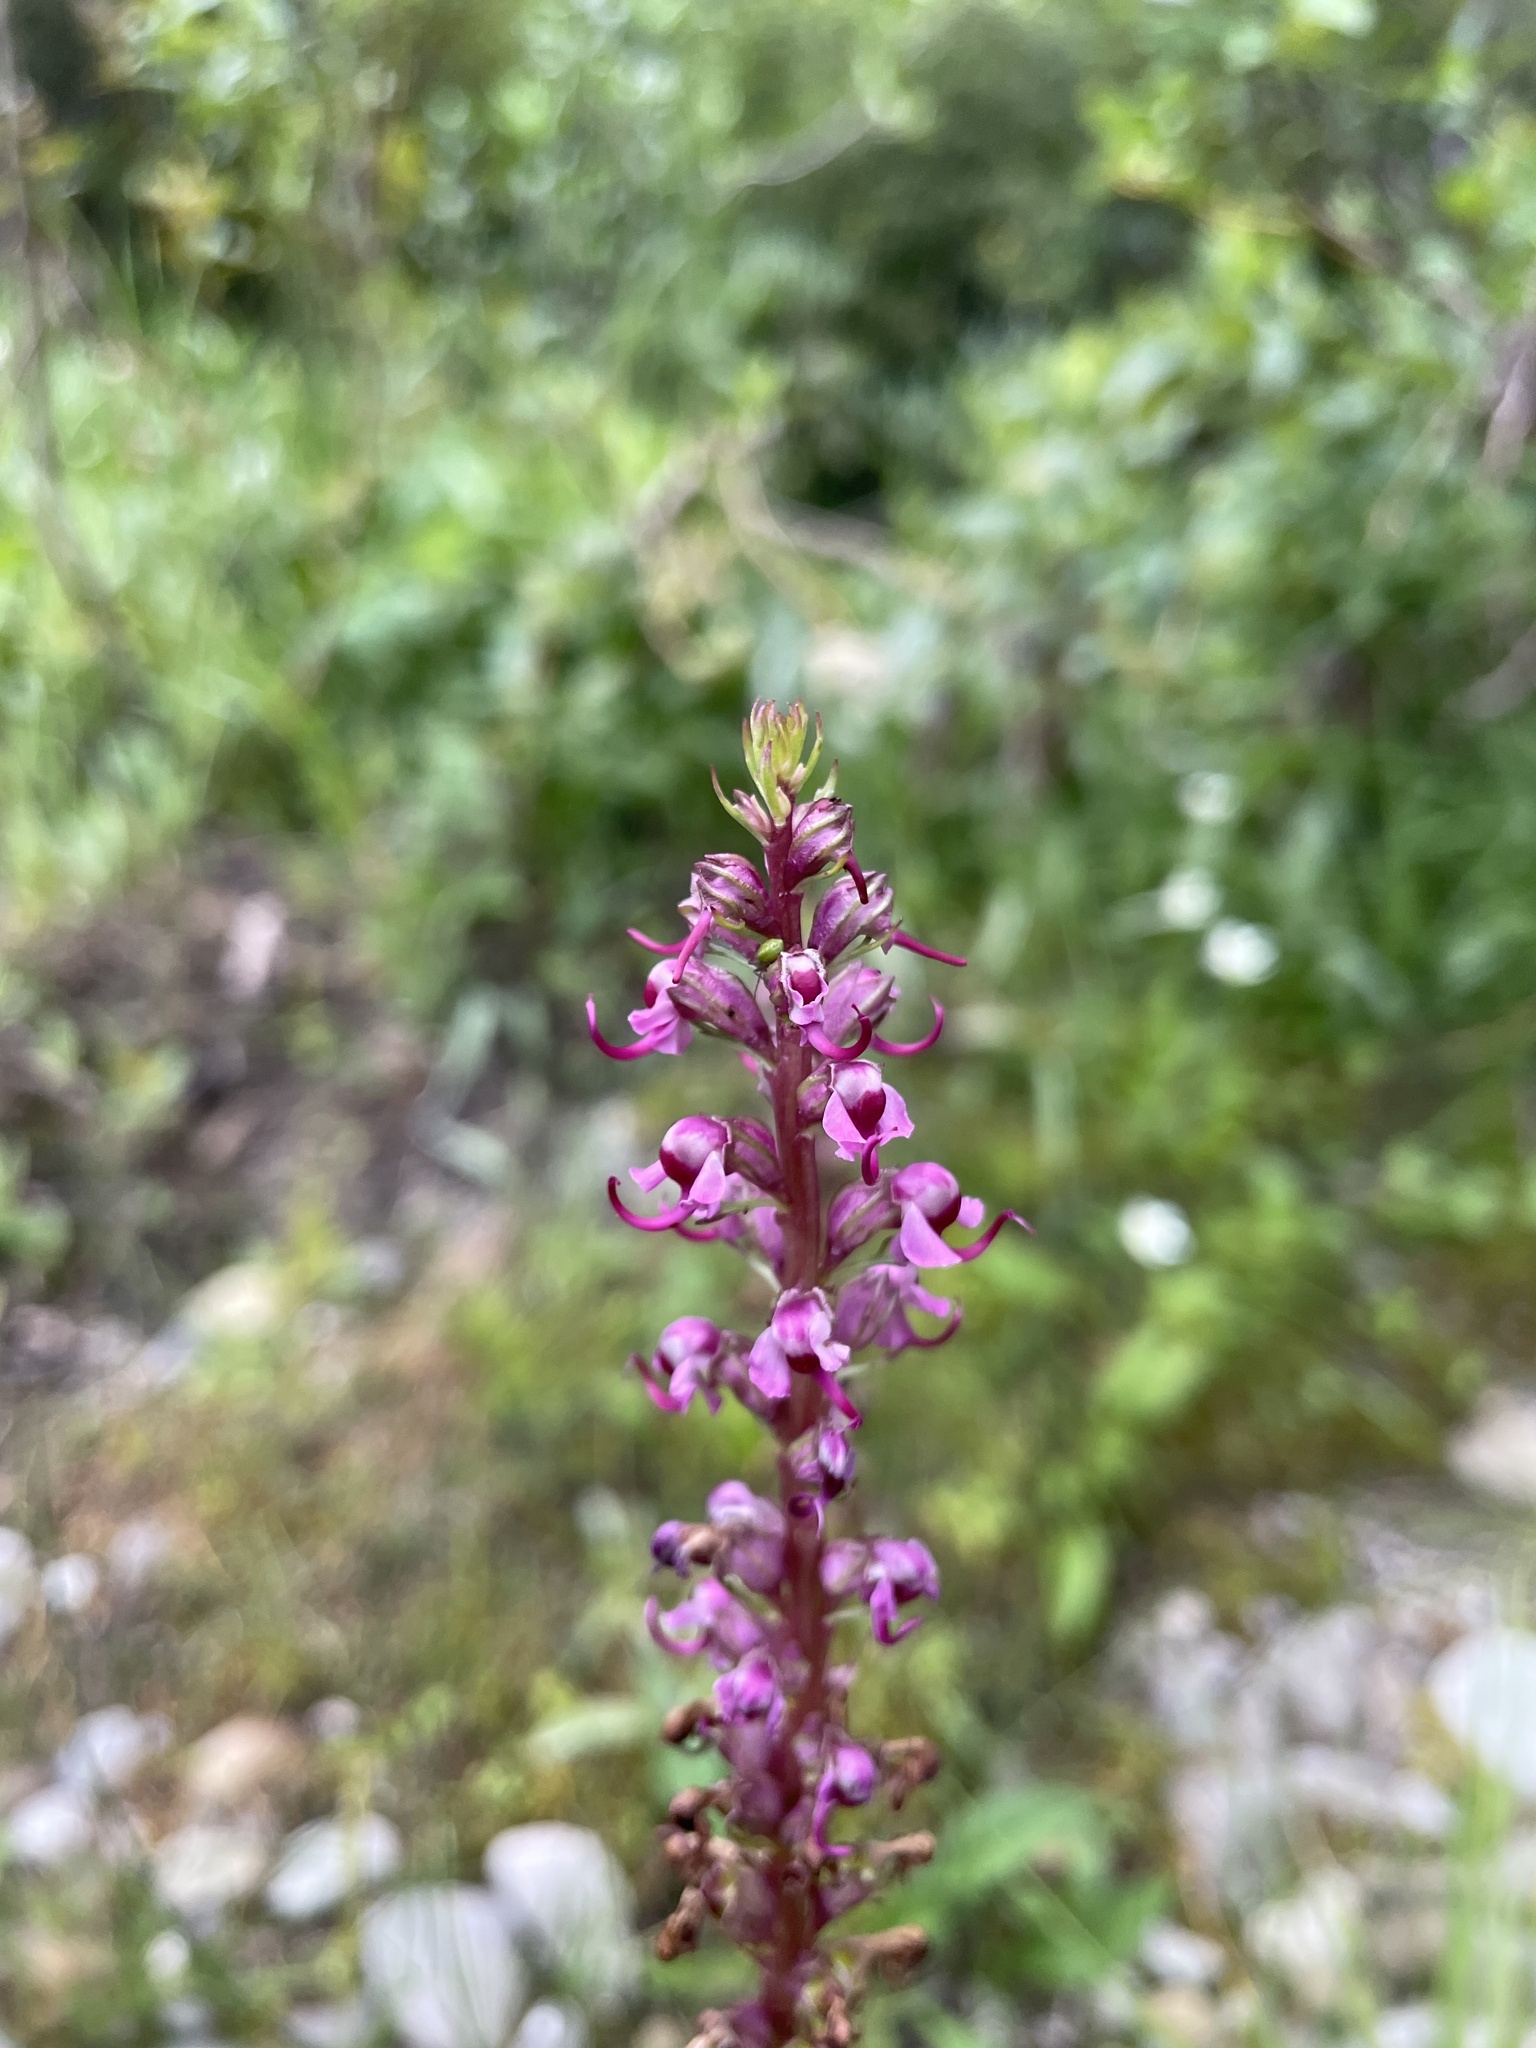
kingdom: Plantae
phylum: Tracheophyta
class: Magnoliopsida
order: Lamiales
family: Orobanchaceae
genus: Pedicularis
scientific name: Pedicularis groenlandica
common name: Elephant's-head
